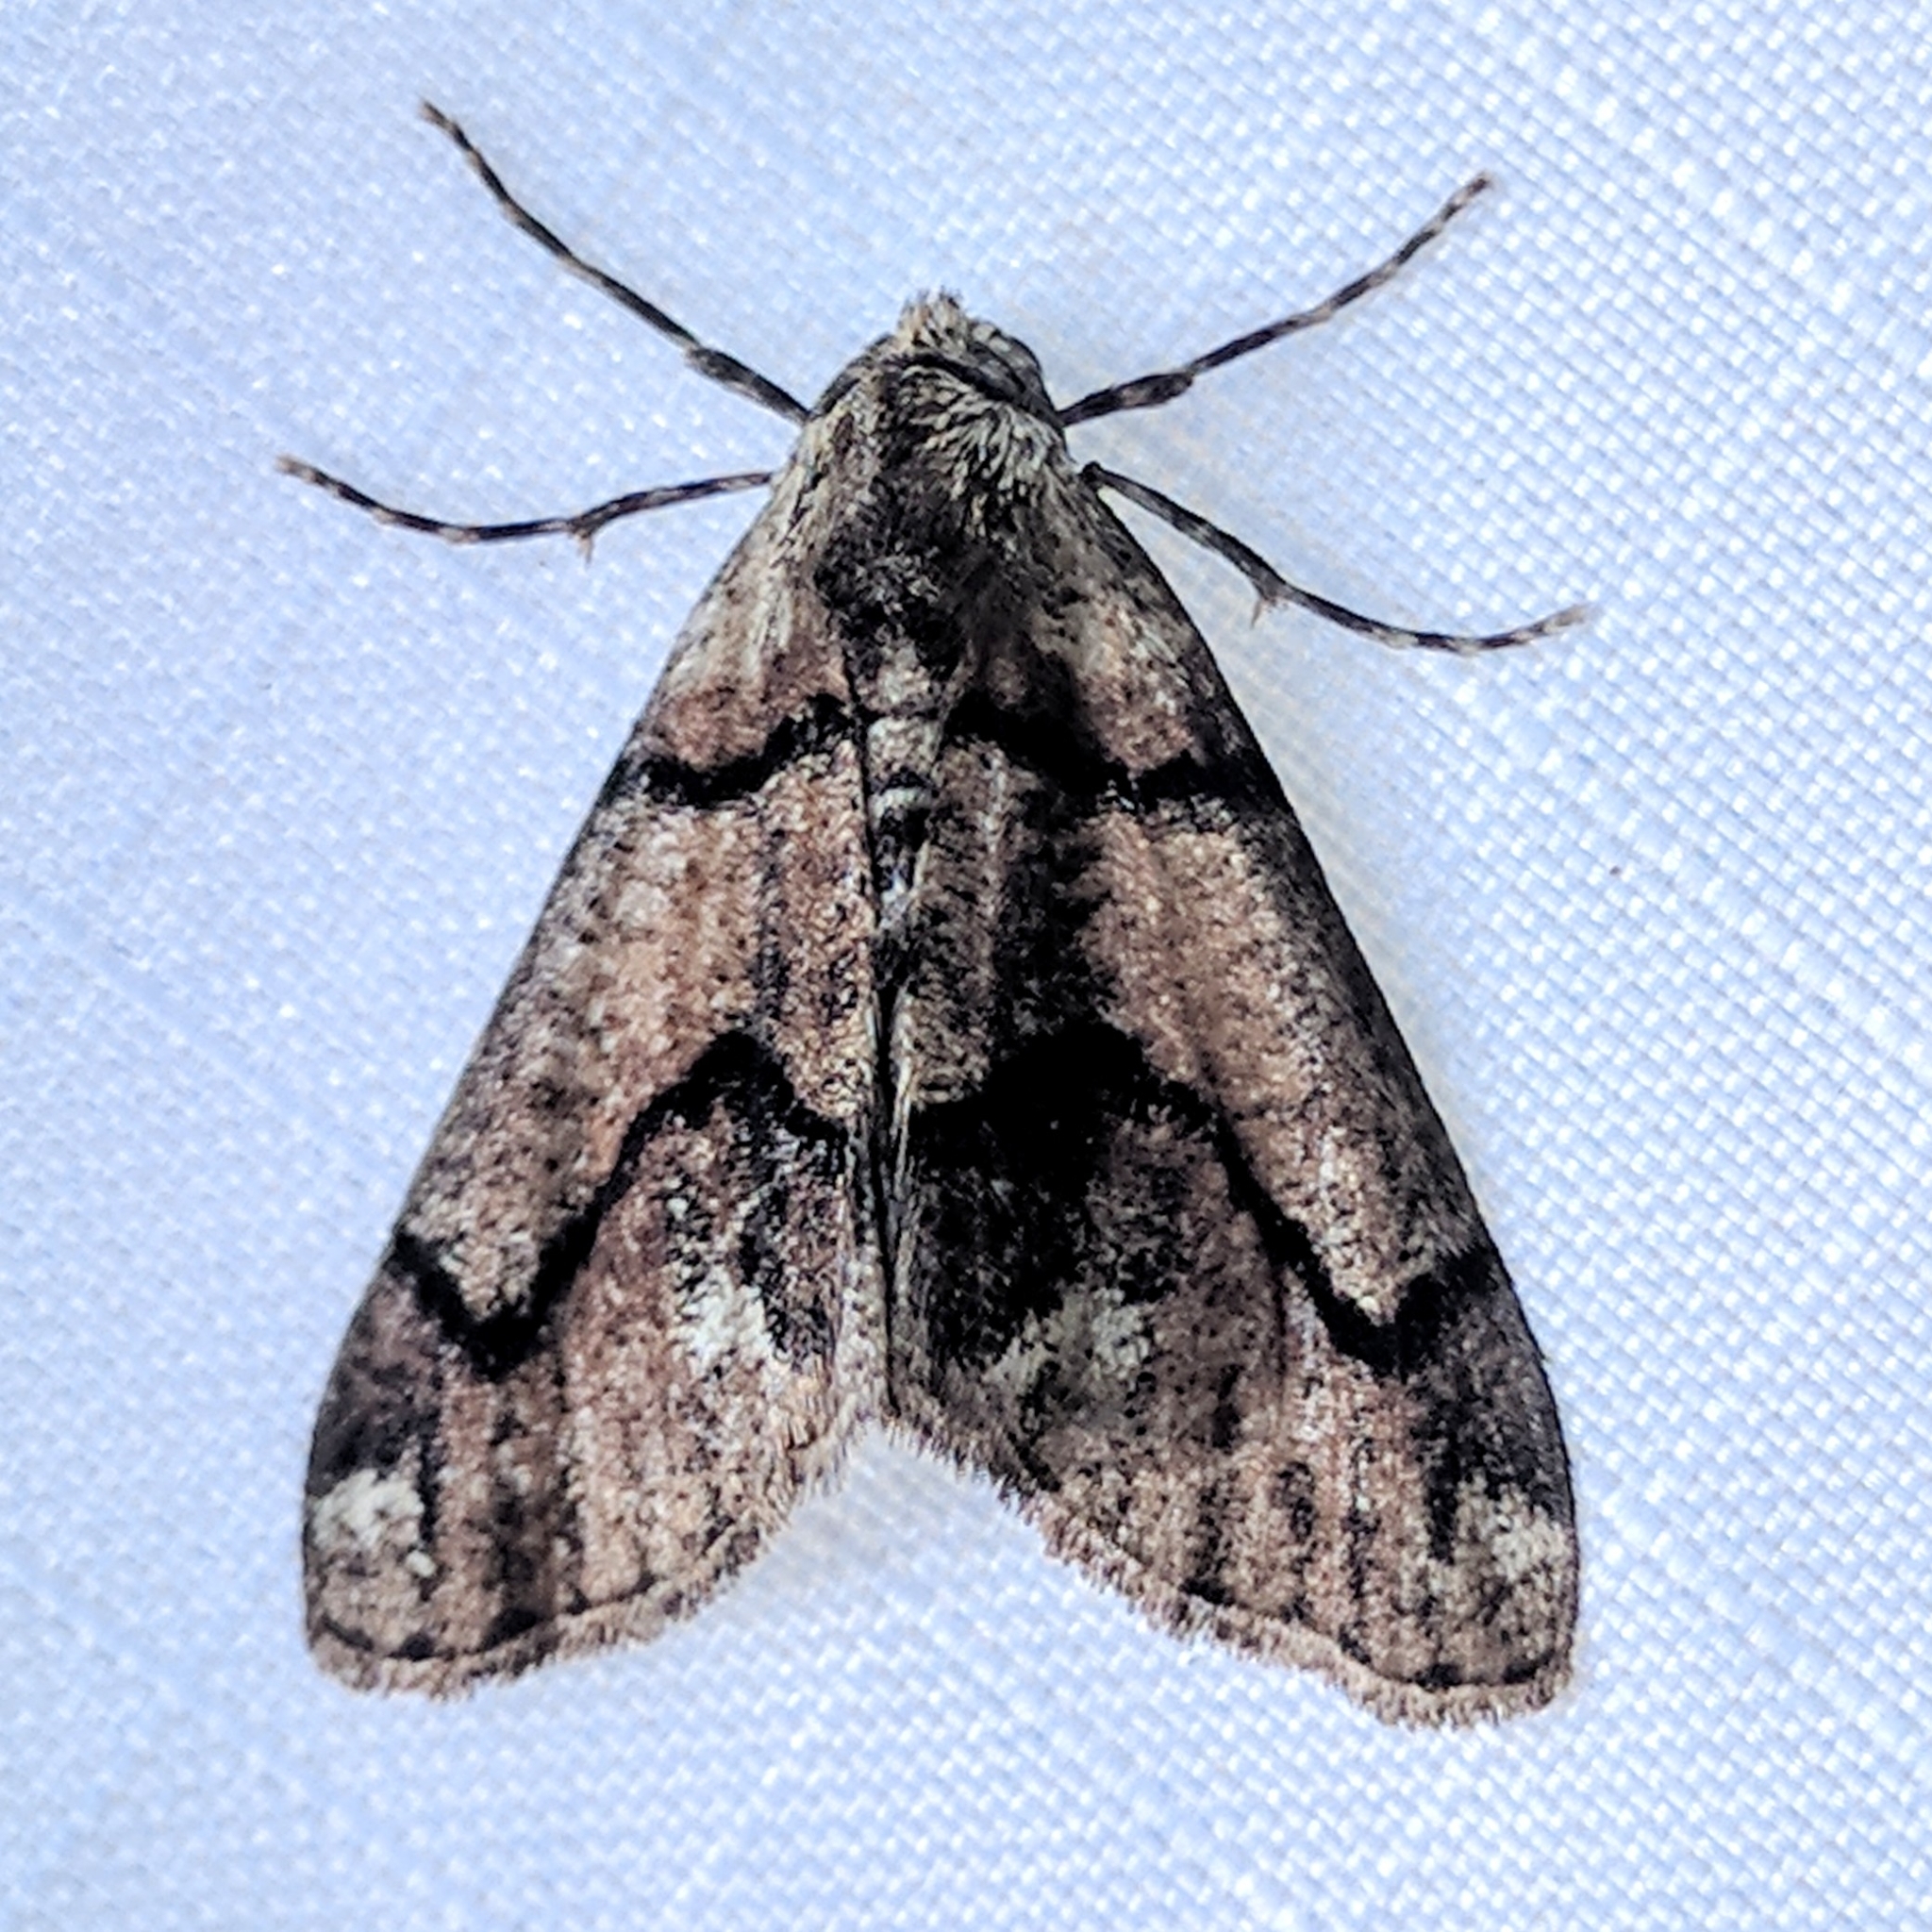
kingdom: Animalia
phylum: Arthropoda
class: Insecta
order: Lepidoptera
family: Geometridae
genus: Gabriola
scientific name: Gabriola dyari
